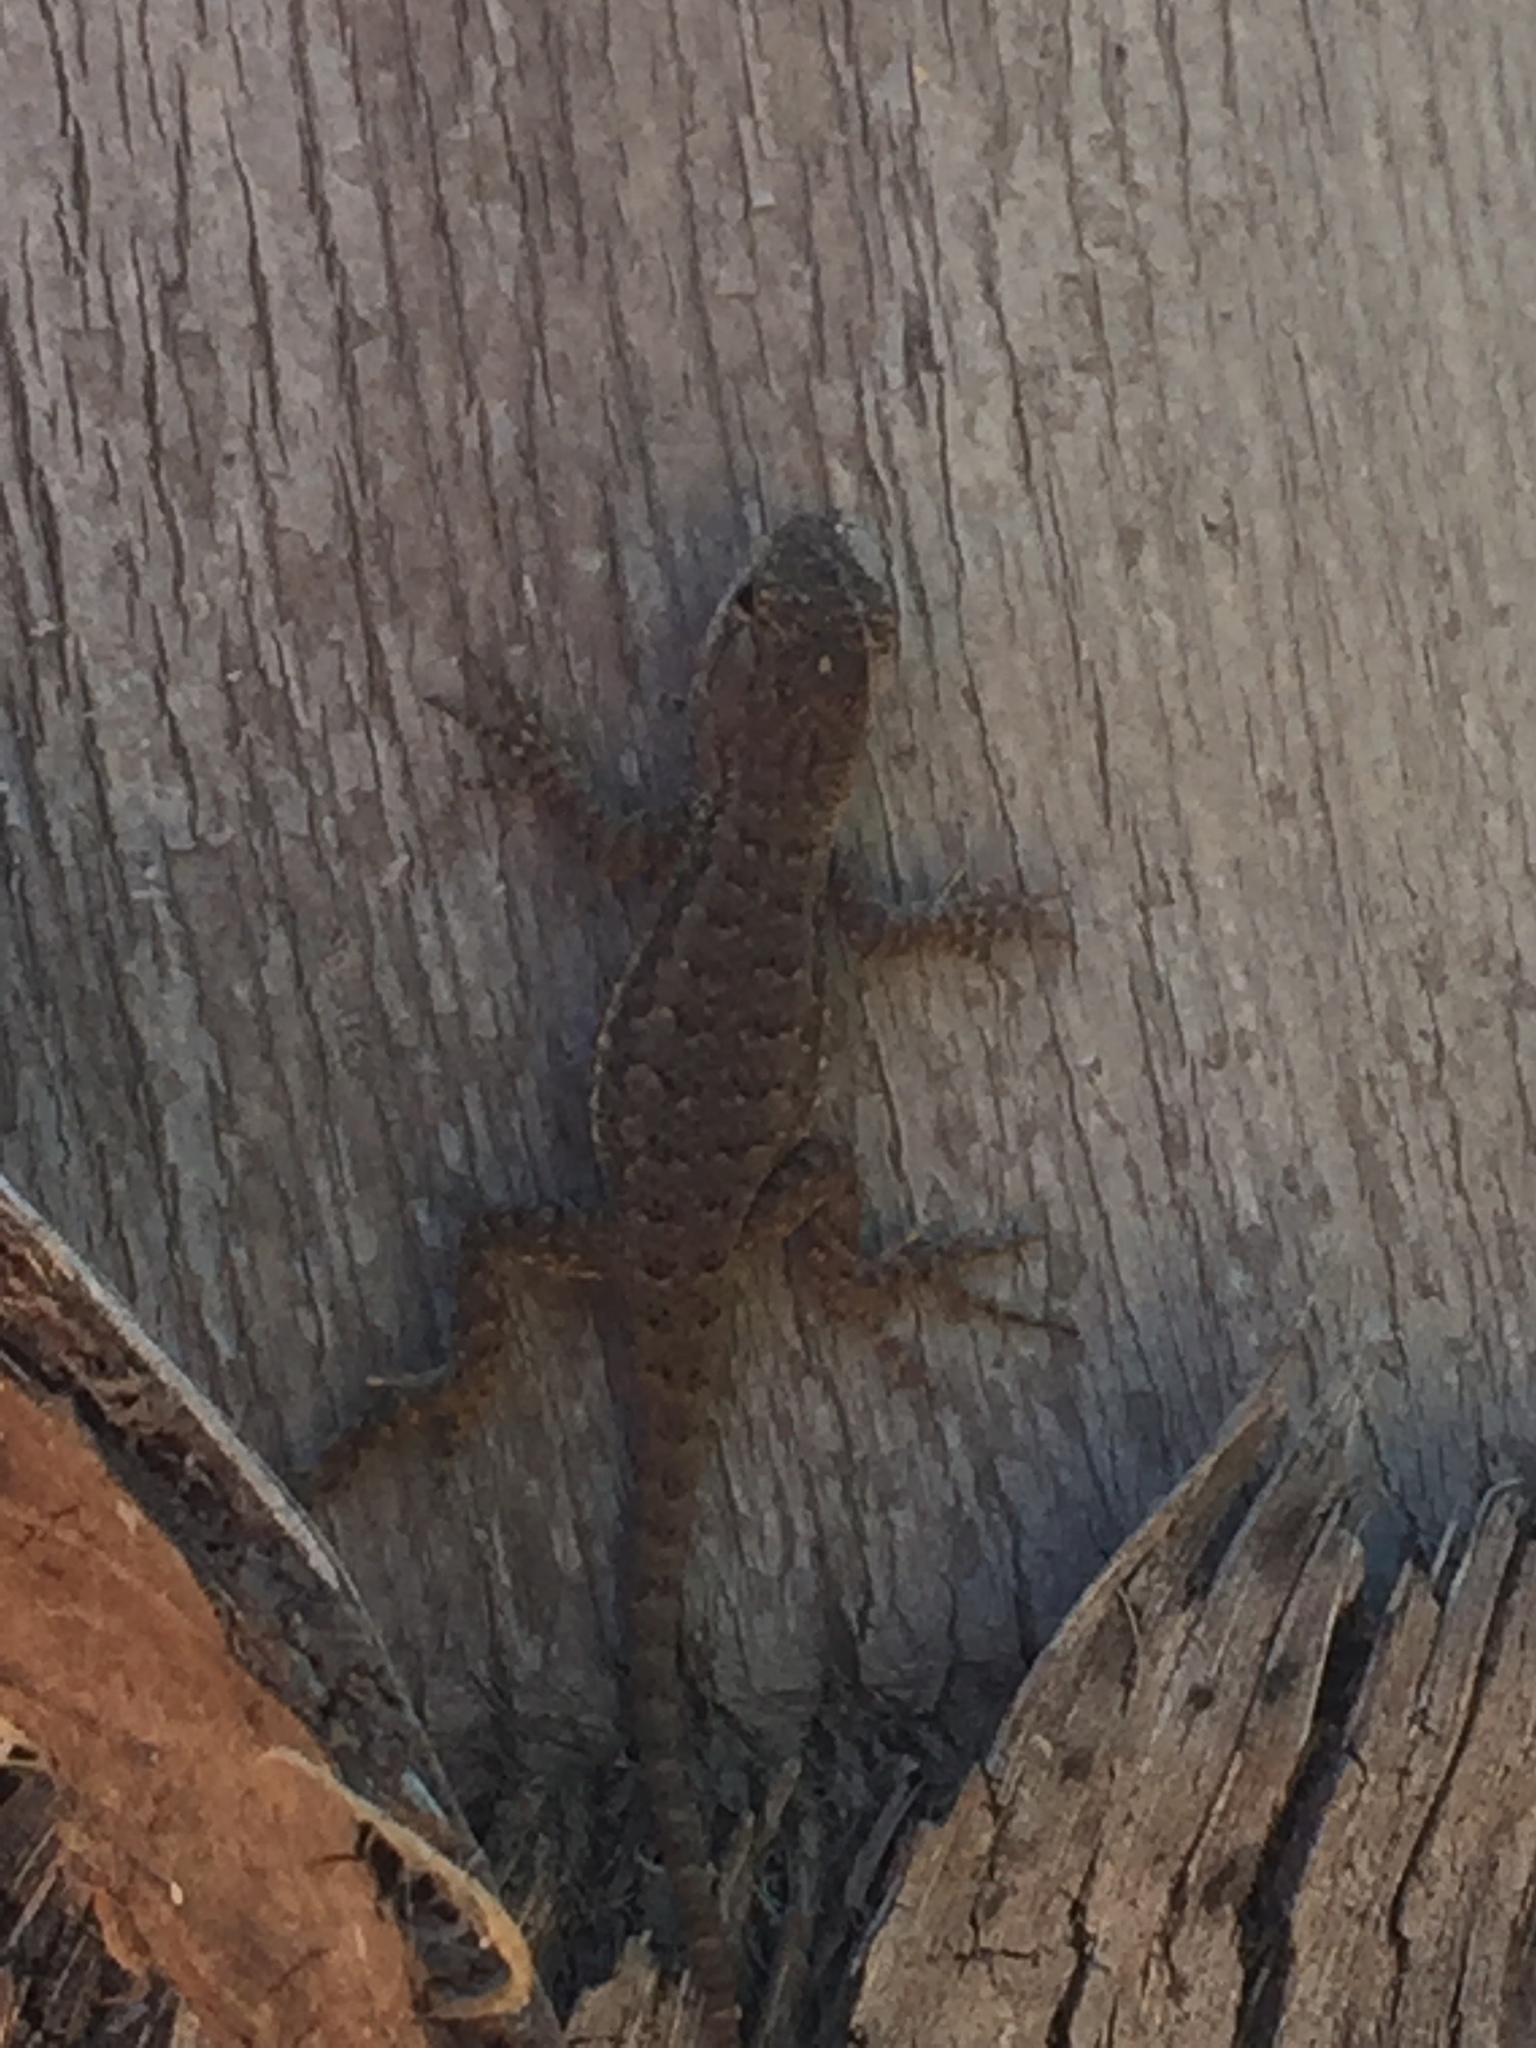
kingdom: Animalia
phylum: Chordata
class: Squamata
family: Phrynosomatidae
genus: Sceloporus
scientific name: Sceloporus occidentalis
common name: Western fence lizard
